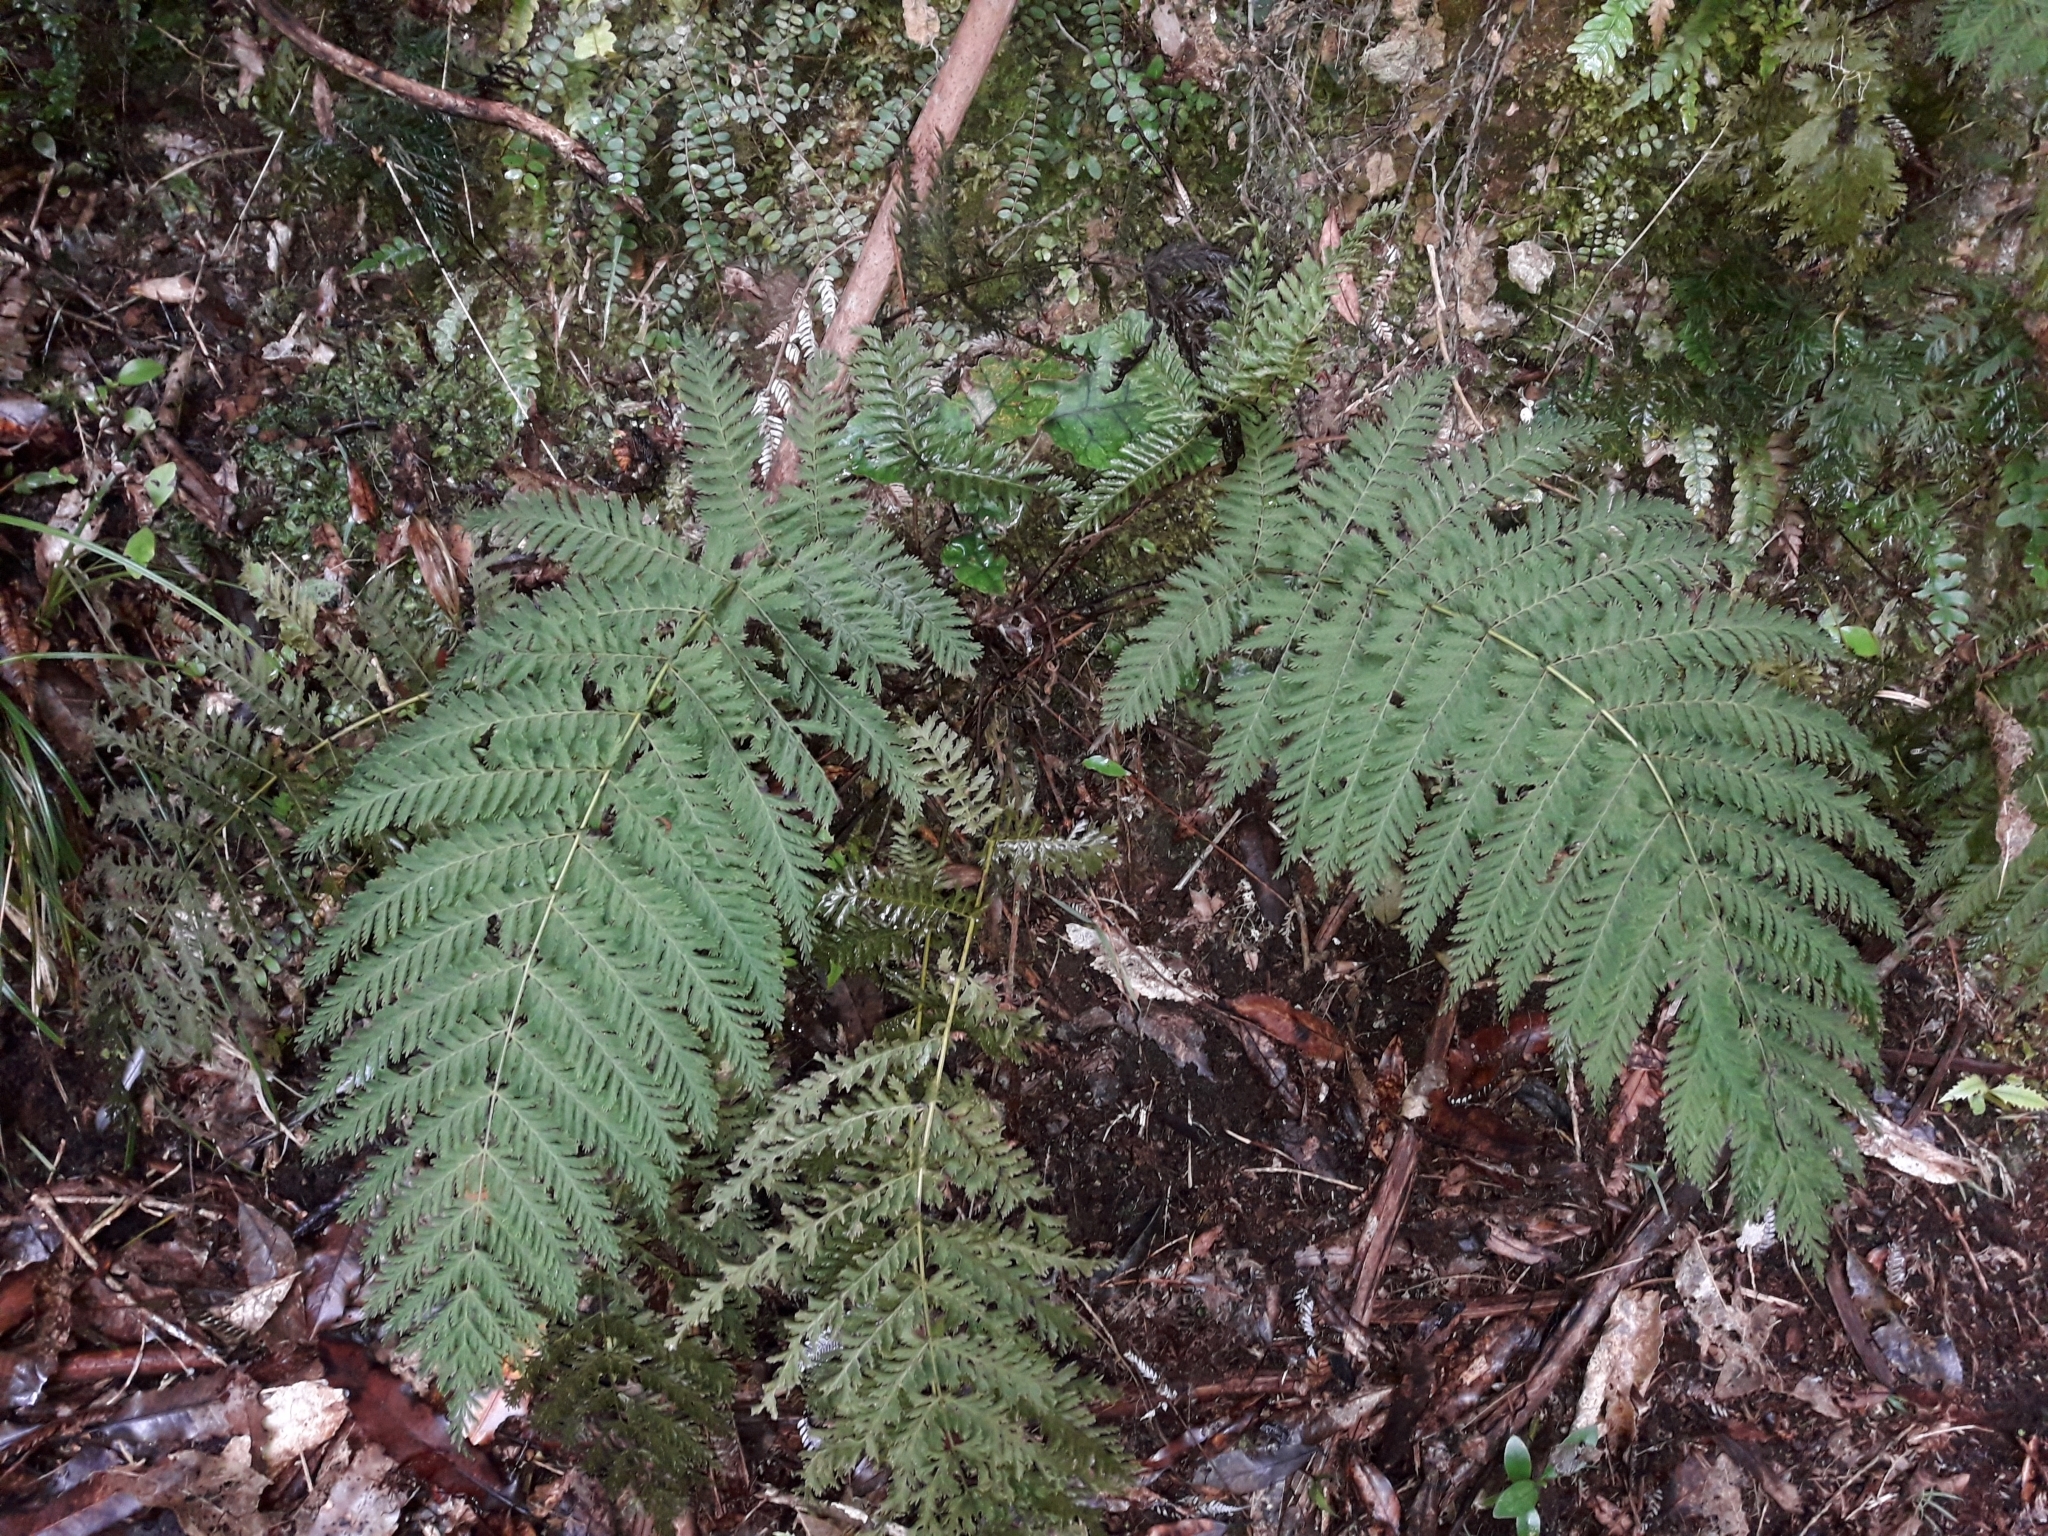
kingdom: Plantae
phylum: Tracheophyta
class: Polypodiopsida
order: Osmundales
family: Osmundaceae
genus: Leptopteris
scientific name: Leptopteris hymenophylloides
